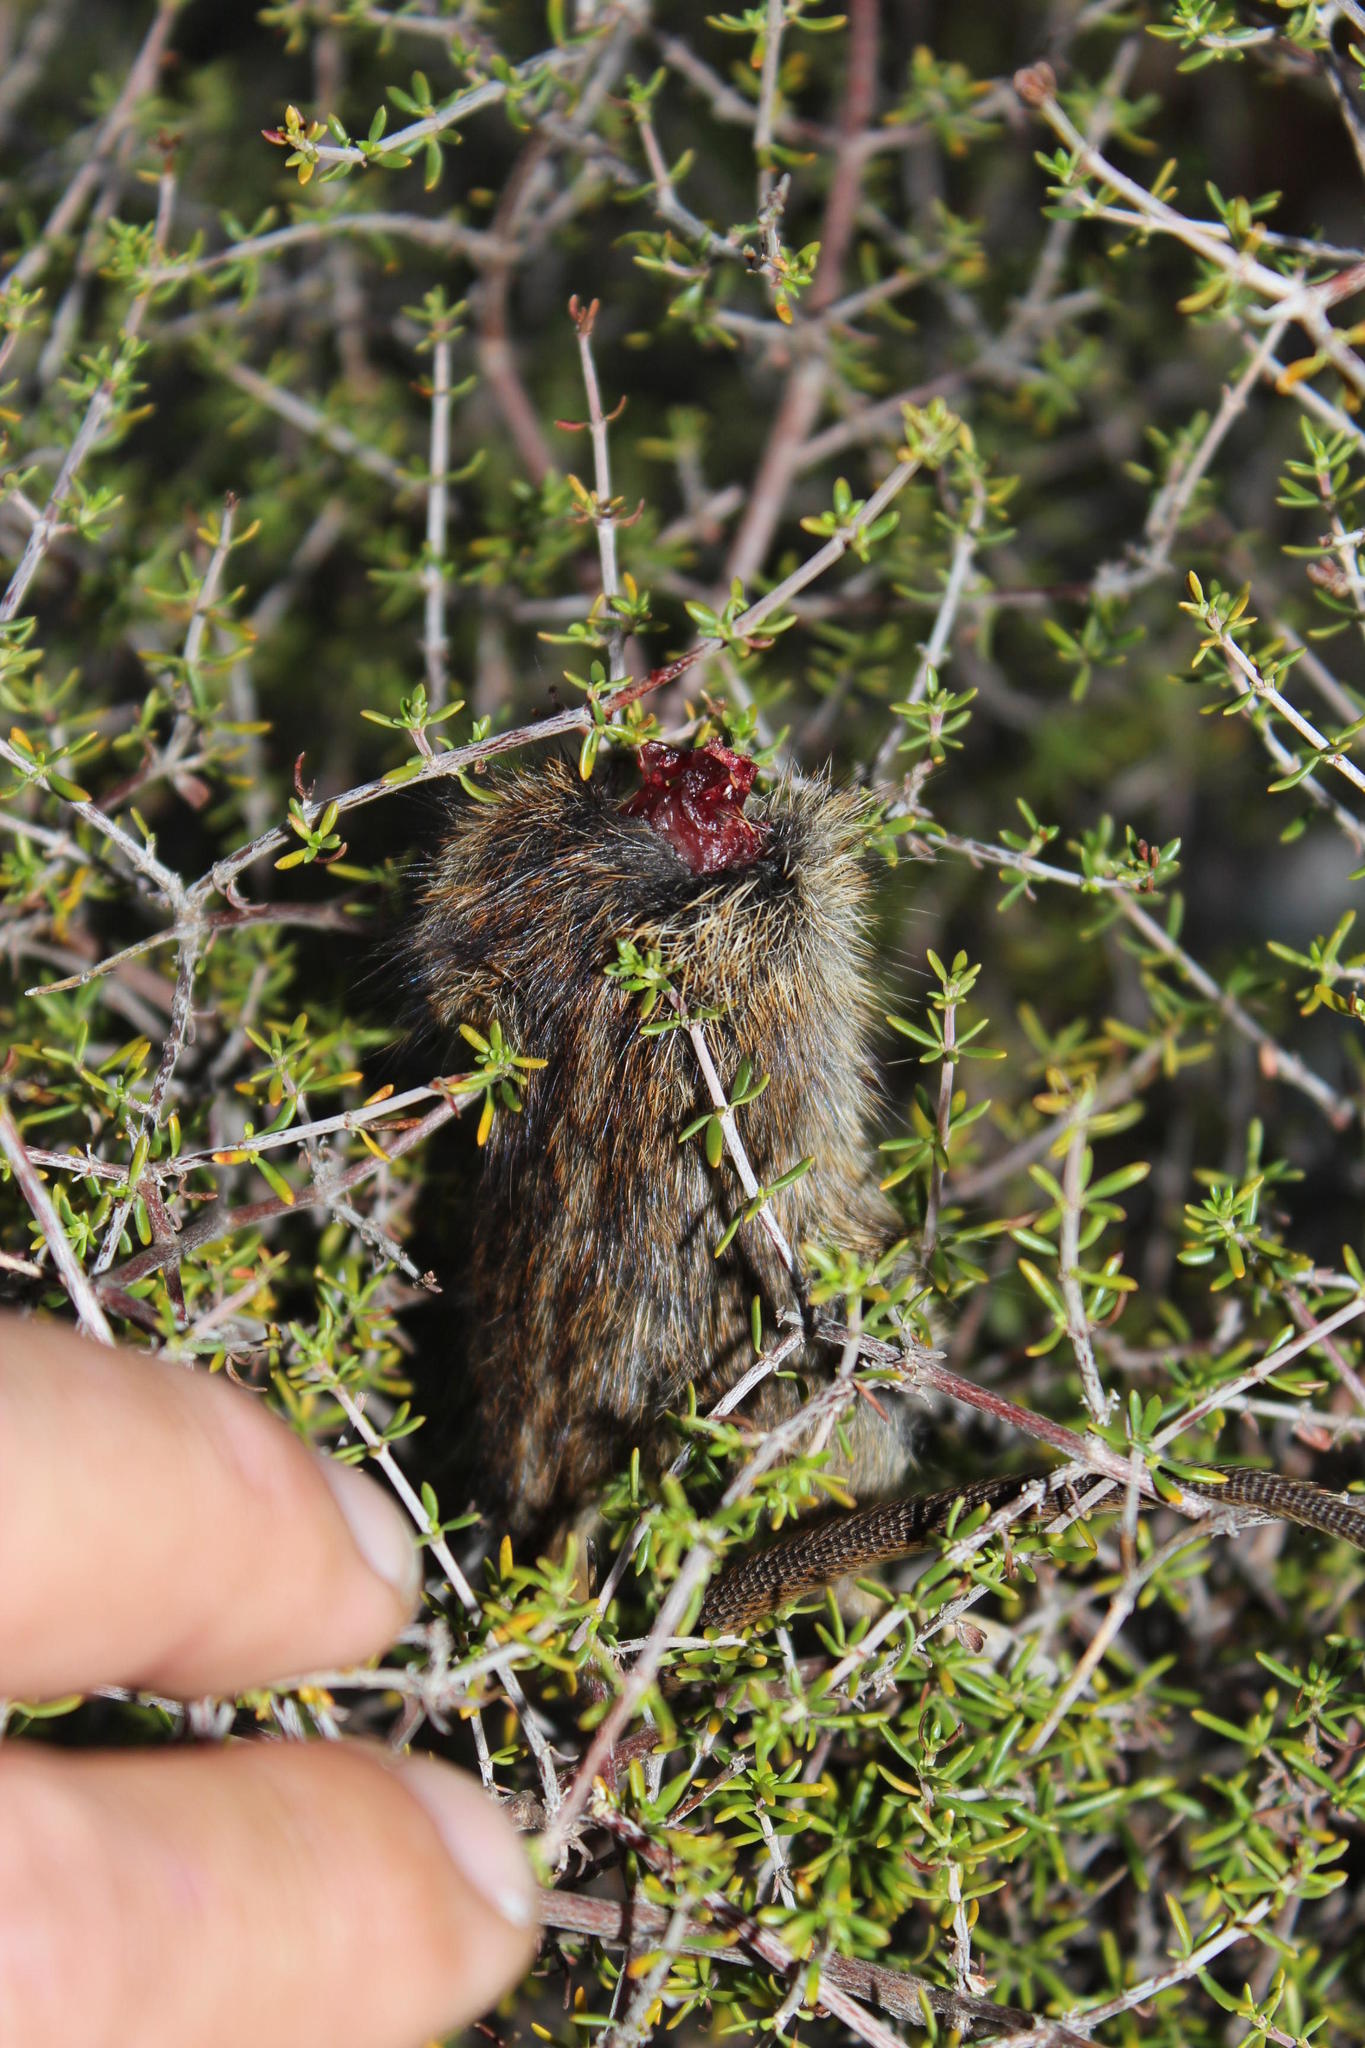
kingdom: Animalia
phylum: Chordata
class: Mammalia
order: Rodentia
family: Muridae
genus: Rhabdomys
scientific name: Rhabdomys pumilio
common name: Xeric four-striped grass rat
